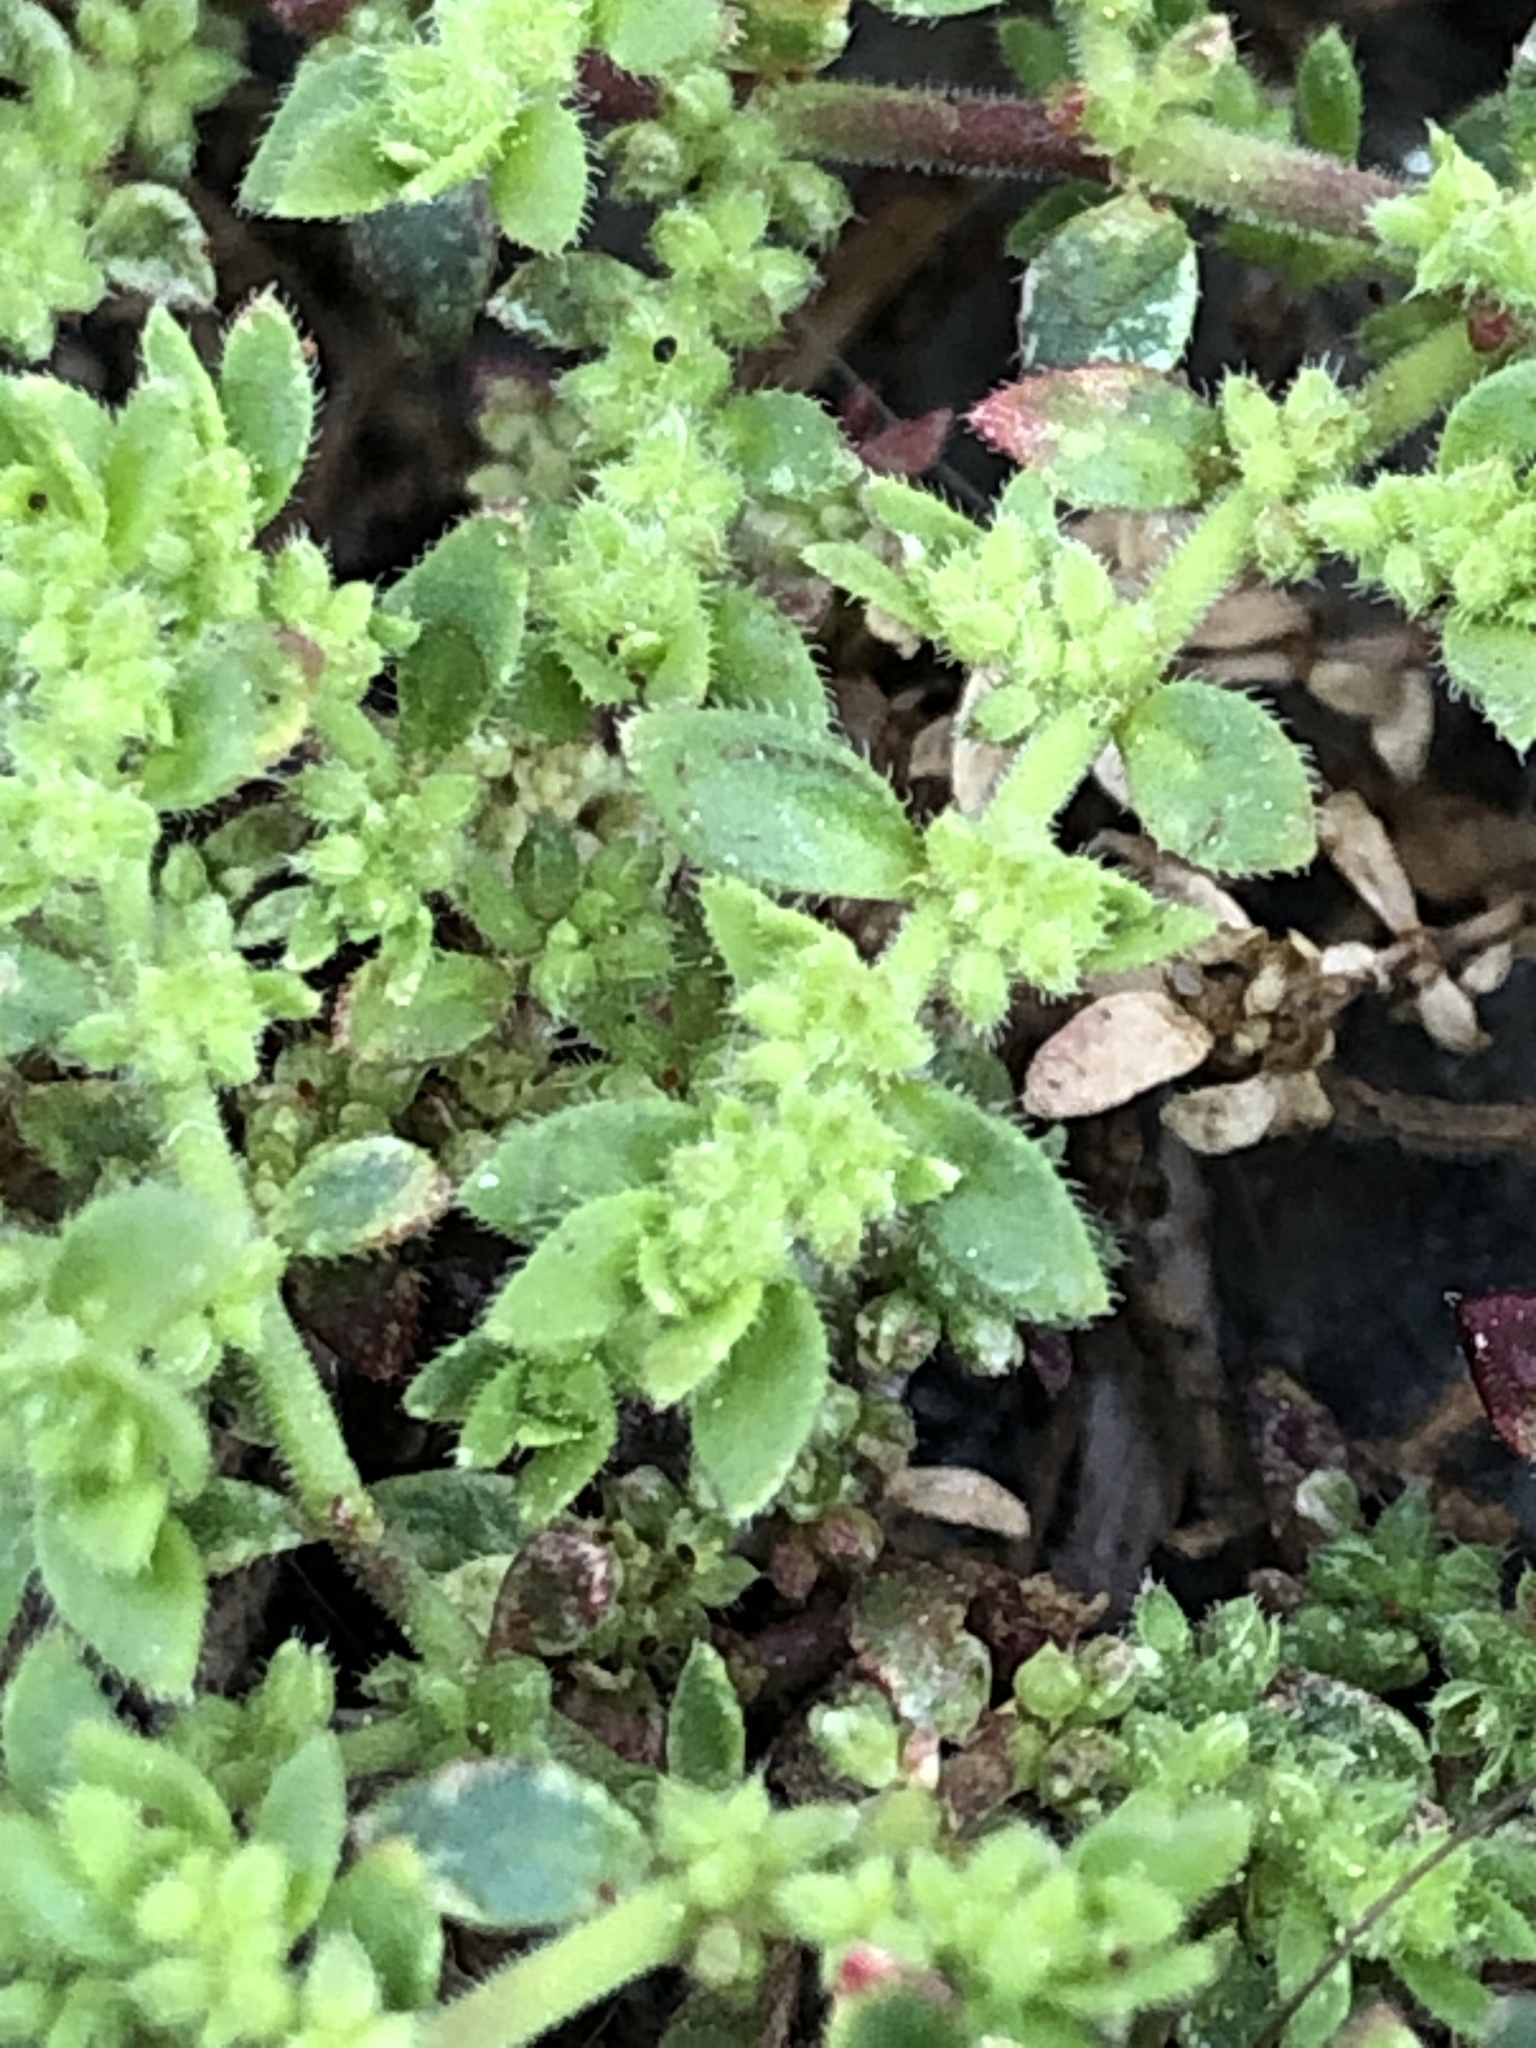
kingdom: Plantae
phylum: Tracheophyta
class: Magnoliopsida
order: Caryophyllales
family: Caryophyllaceae
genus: Herniaria
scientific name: Herniaria hirsuta
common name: Hairy rupturewort
